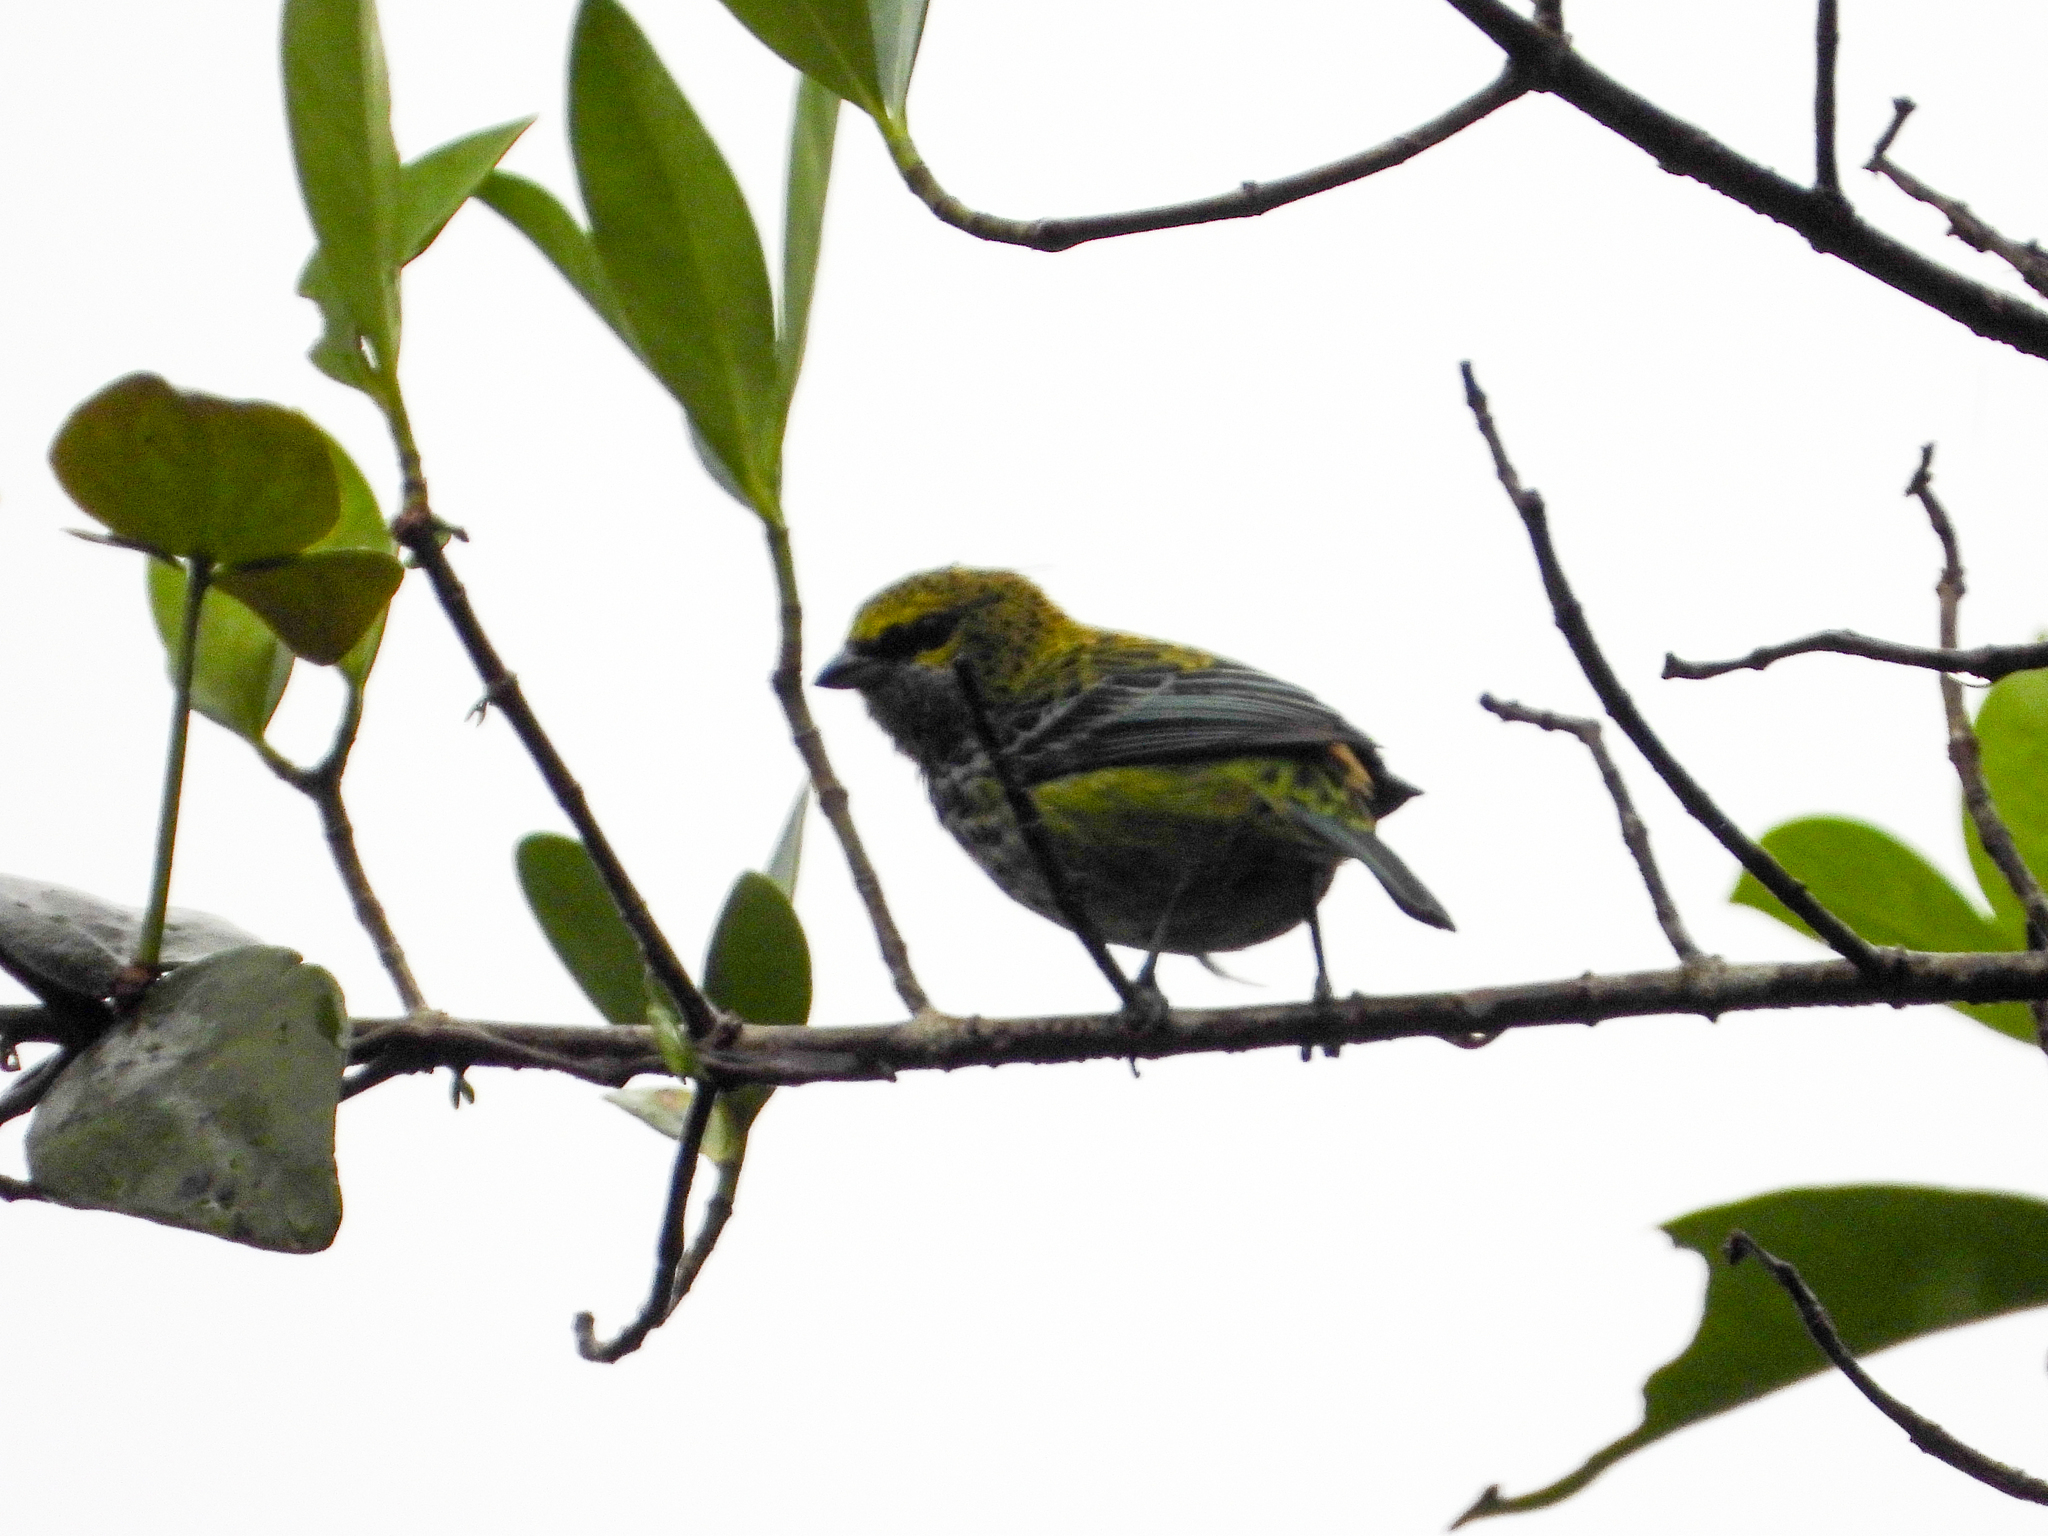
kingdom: Animalia
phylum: Chordata
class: Aves
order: Passeriformes
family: Thraupidae
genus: Ixothraupis
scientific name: Ixothraupis guttata
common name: Speckled tanager
